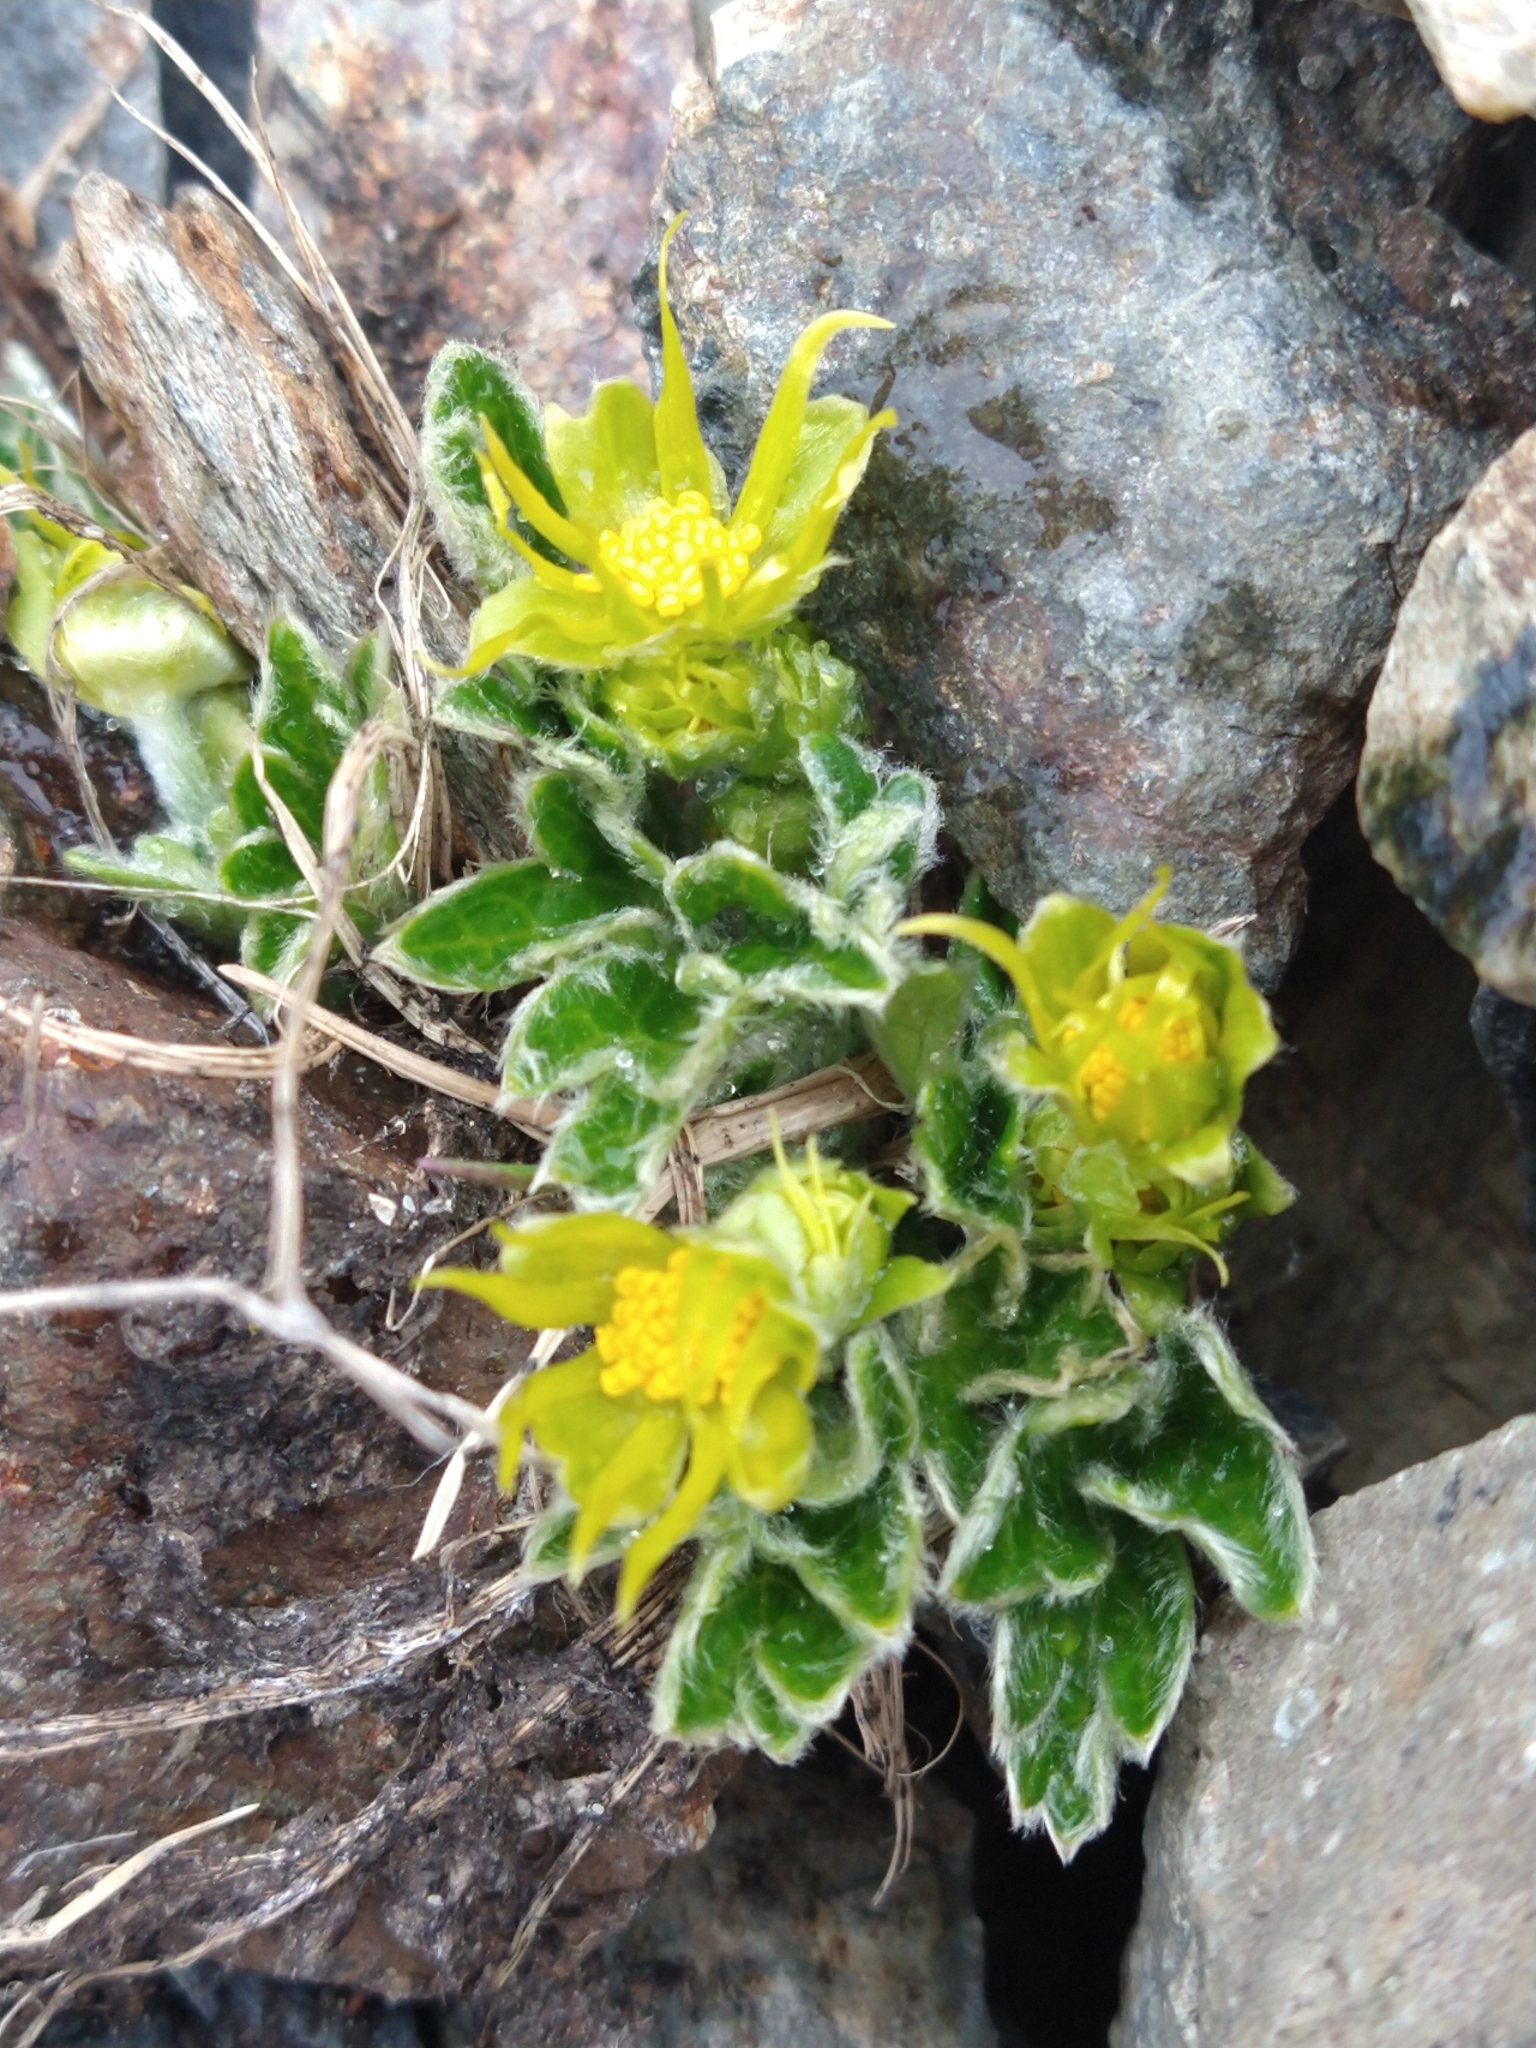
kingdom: Plantae
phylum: Tracheophyta
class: Magnoliopsida
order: Ranunculales
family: Ranunculaceae
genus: Hamadryas
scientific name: Hamadryas magellanica
